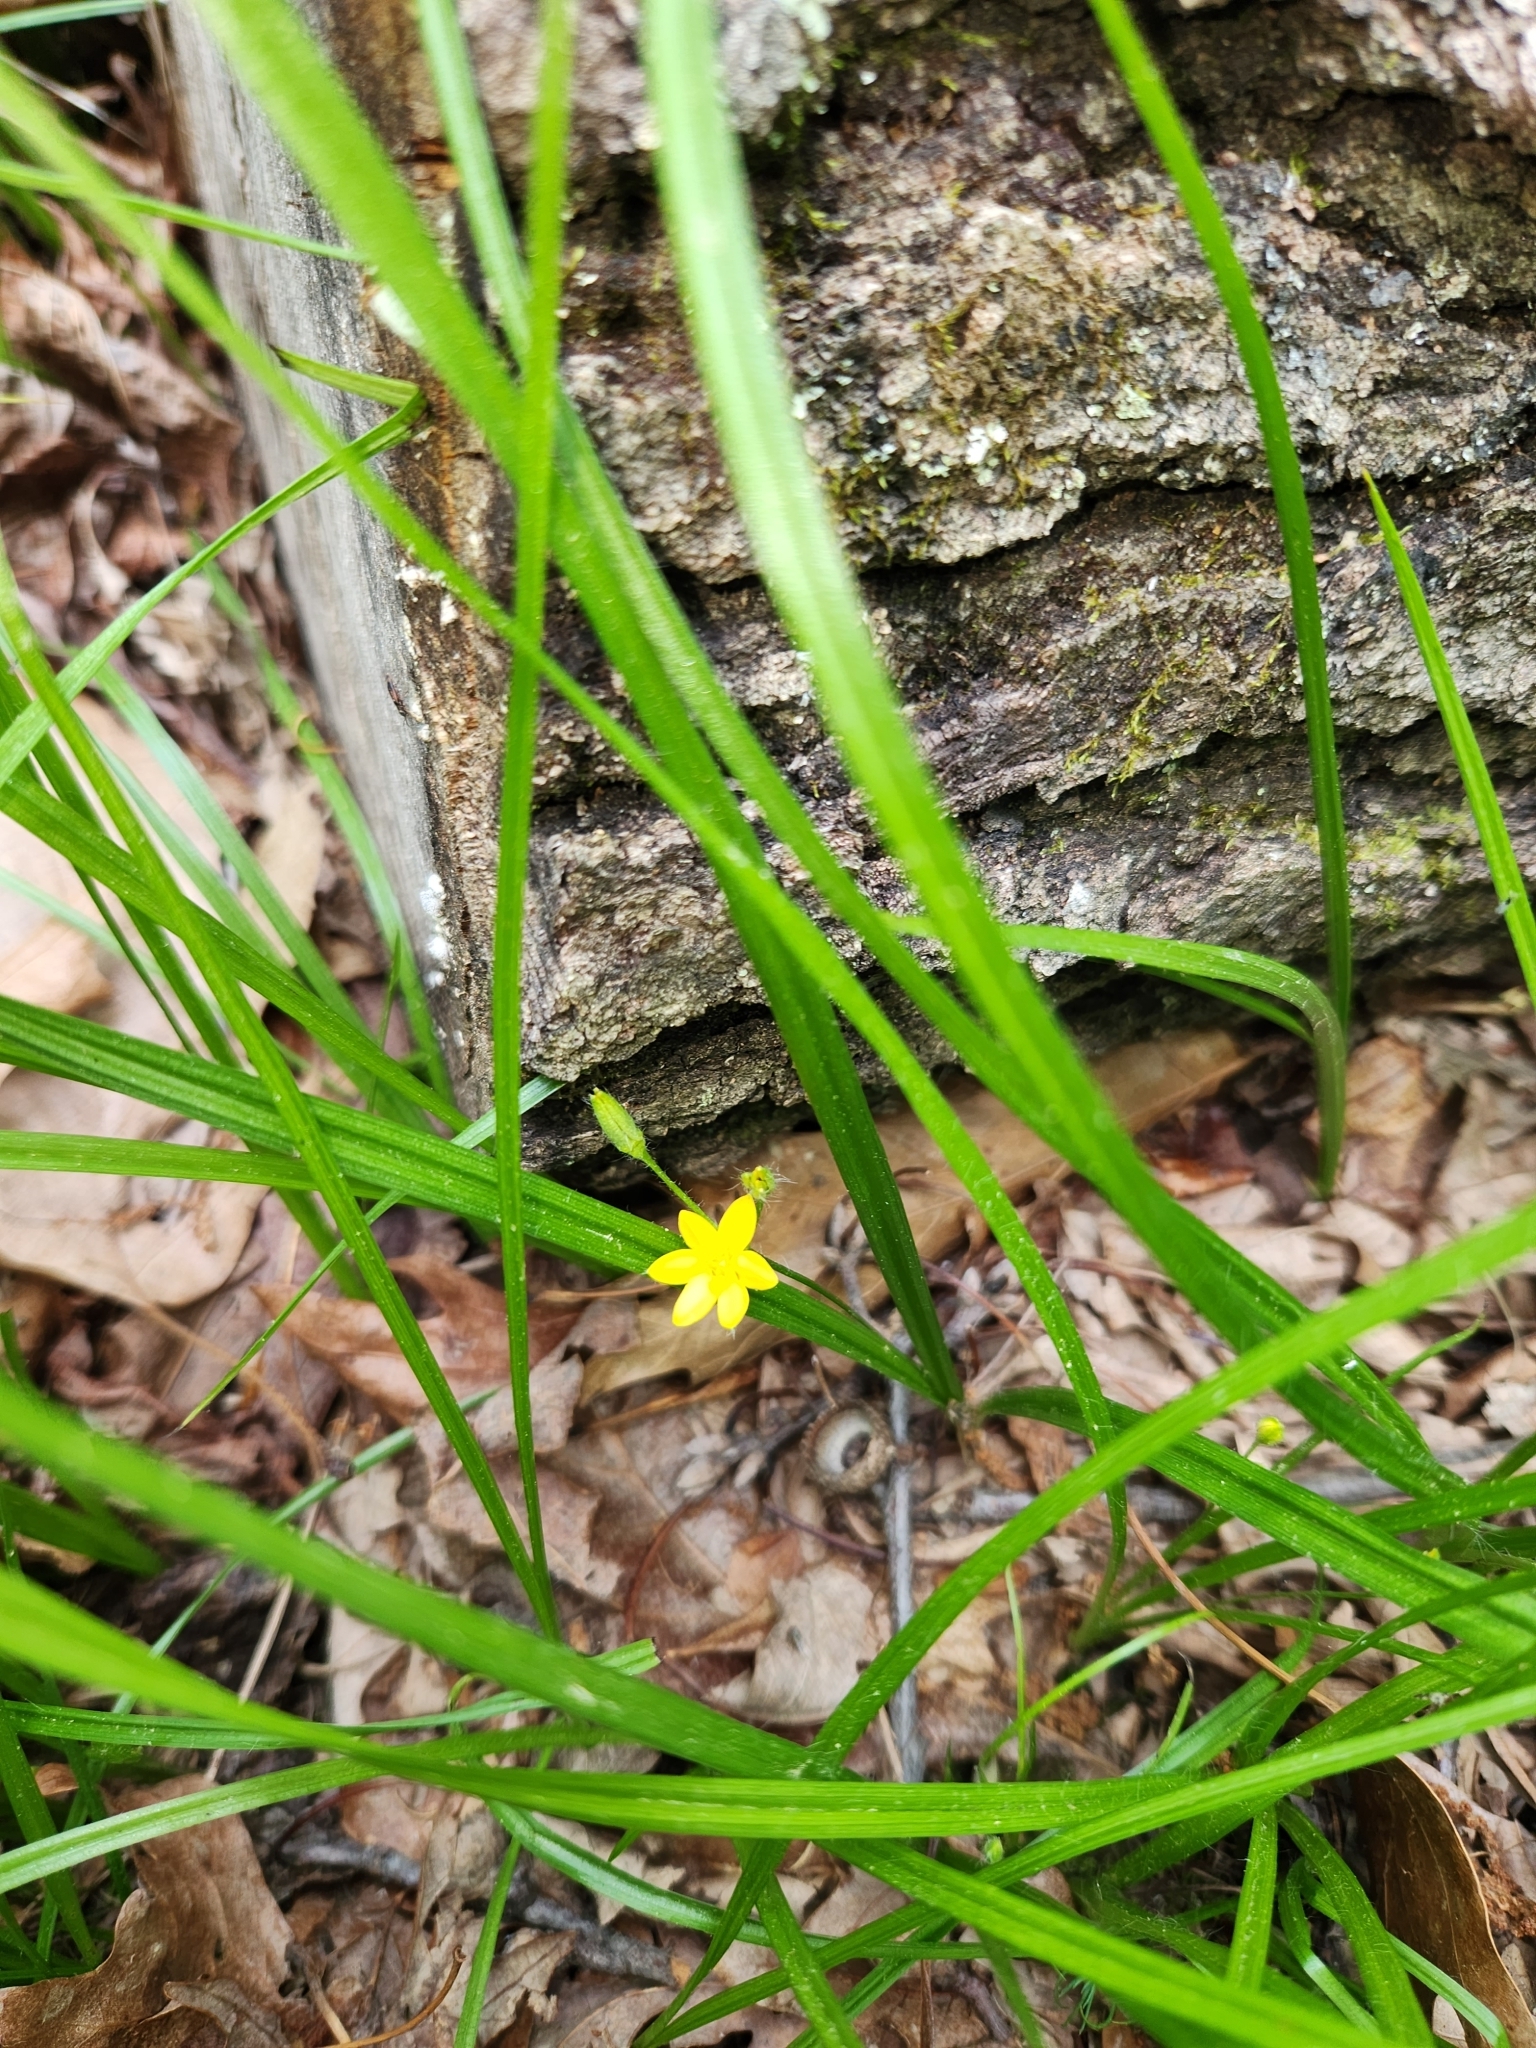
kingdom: Plantae
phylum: Tracheophyta
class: Liliopsida
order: Asparagales
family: Hypoxidaceae
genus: Hypoxis
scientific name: Hypoxis hirsuta
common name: Common goldstar
